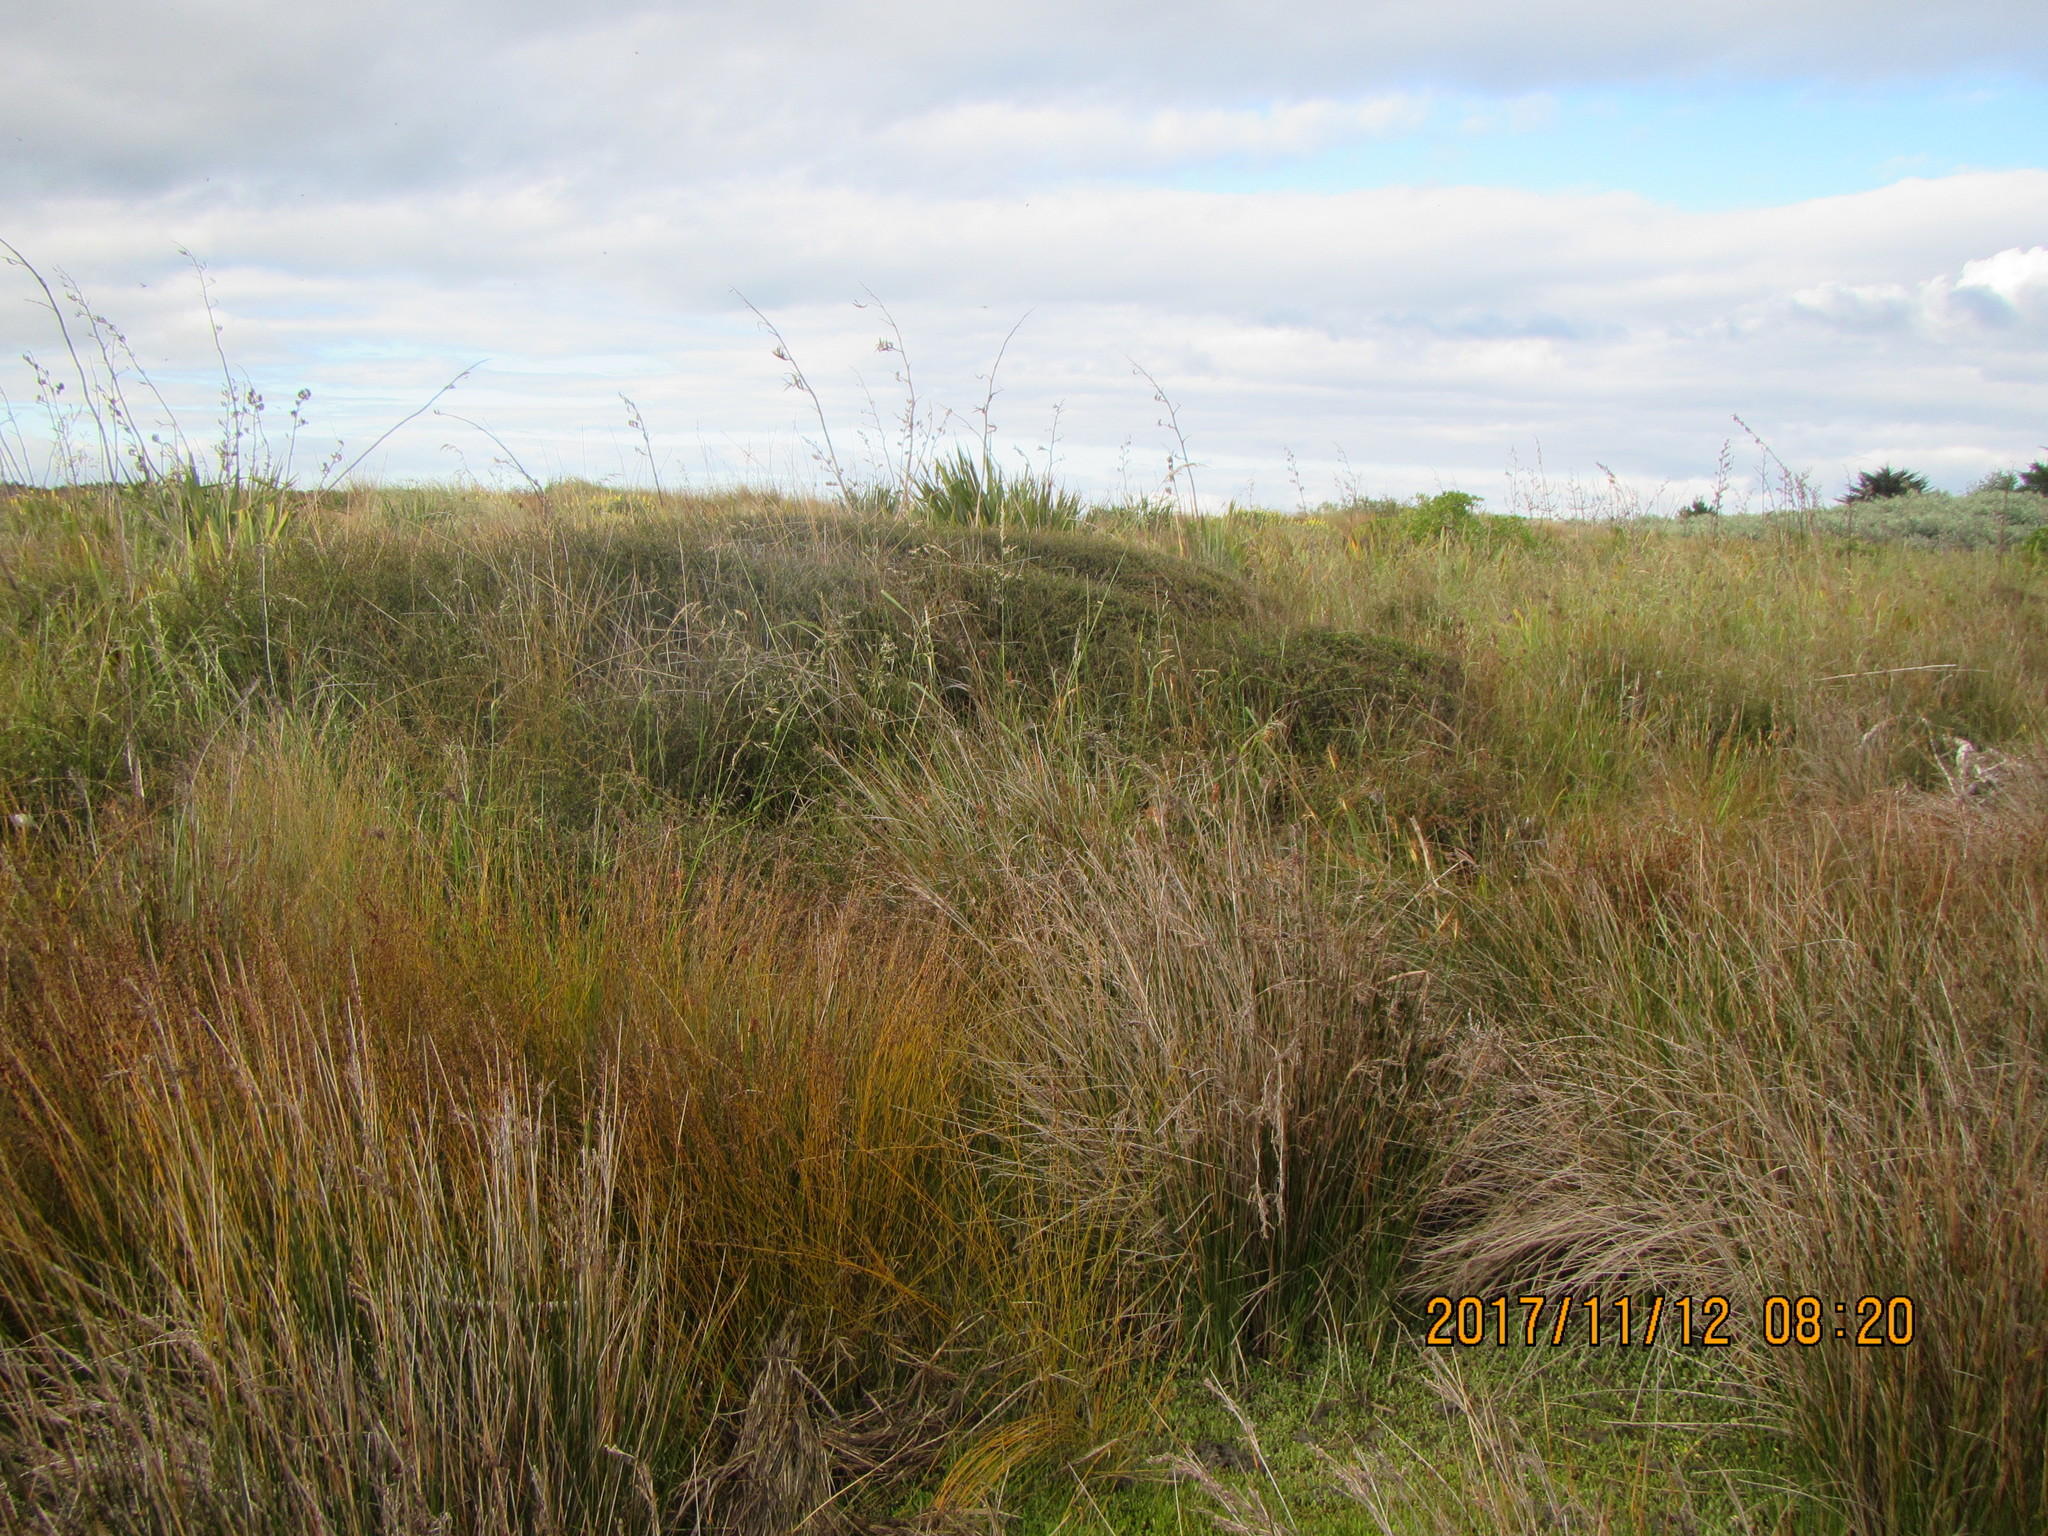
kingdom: Plantae
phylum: Tracheophyta
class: Magnoliopsida
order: Gentianales
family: Rubiaceae
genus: Coprosma
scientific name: Coprosma propinqua
